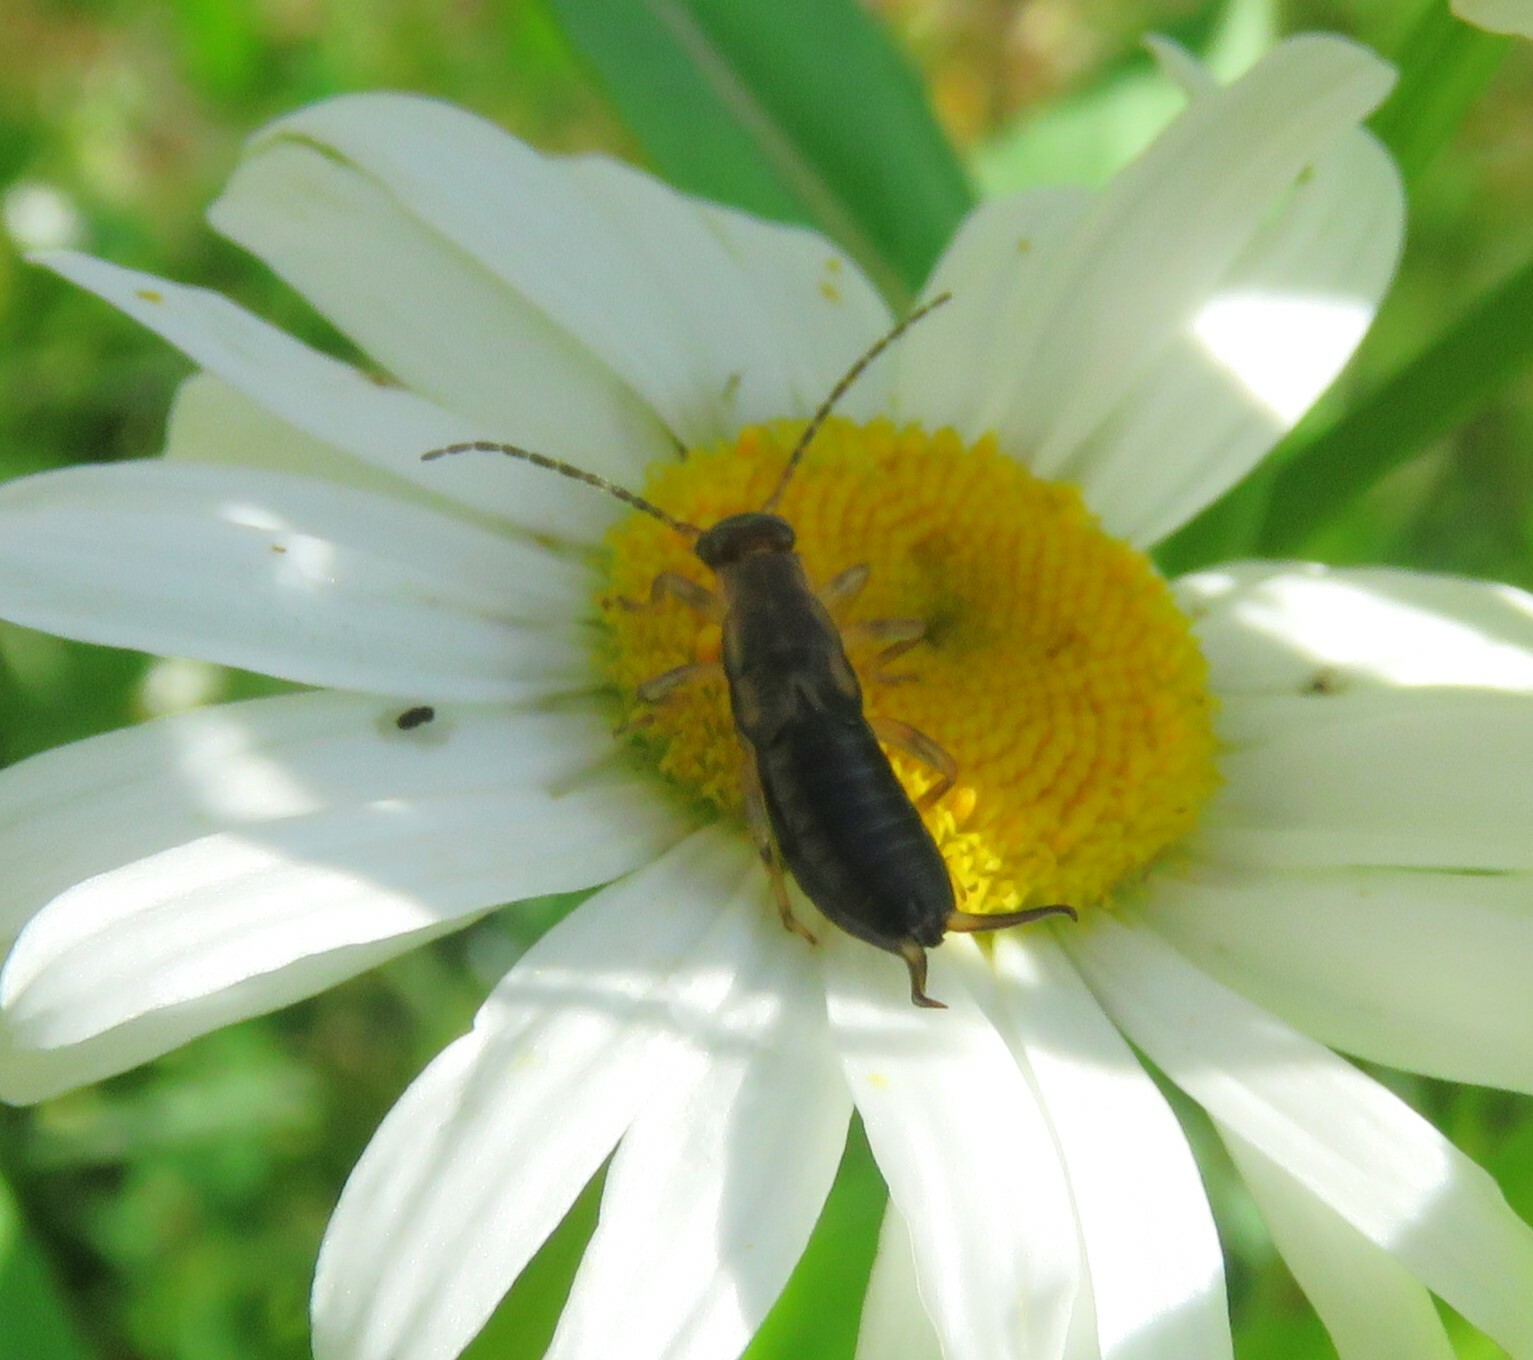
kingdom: Animalia
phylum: Arthropoda
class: Insecta
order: Dermaptera
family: Forficulidae
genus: Forficula
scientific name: Forficula auricularia
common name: European earwig
